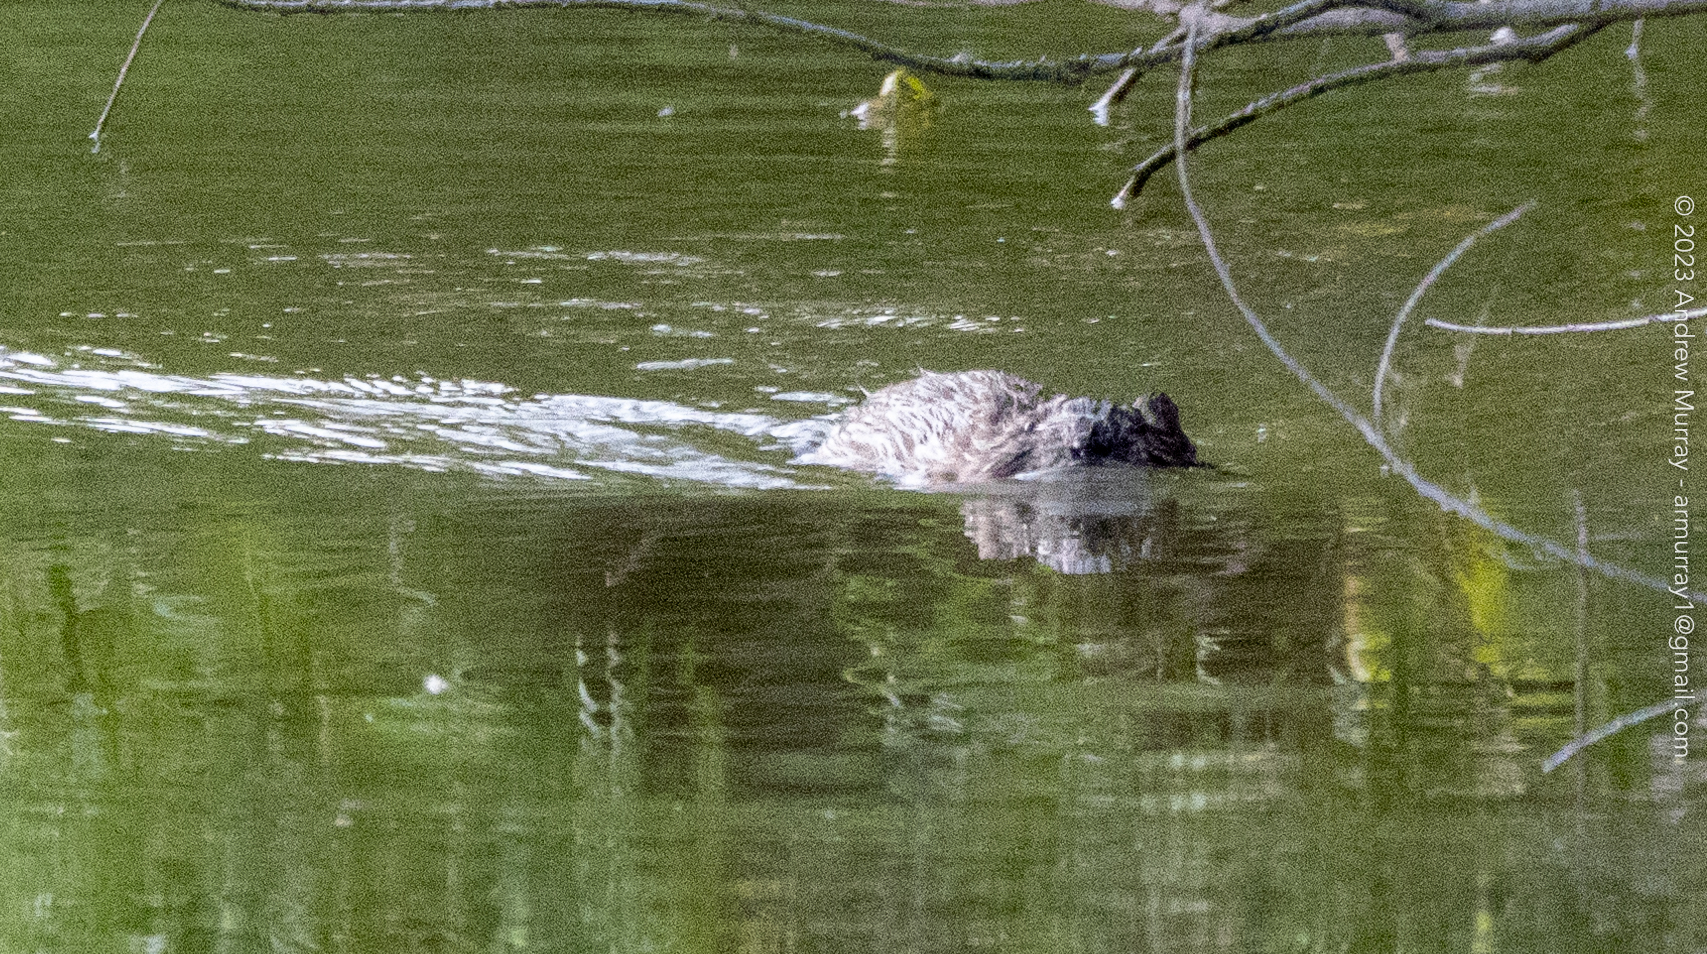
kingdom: Animalia
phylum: Chordata
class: Mammalia
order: Rodentia
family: Cricetidae
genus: Ondatra
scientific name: Ondatra zibethicus
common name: Muskrat
